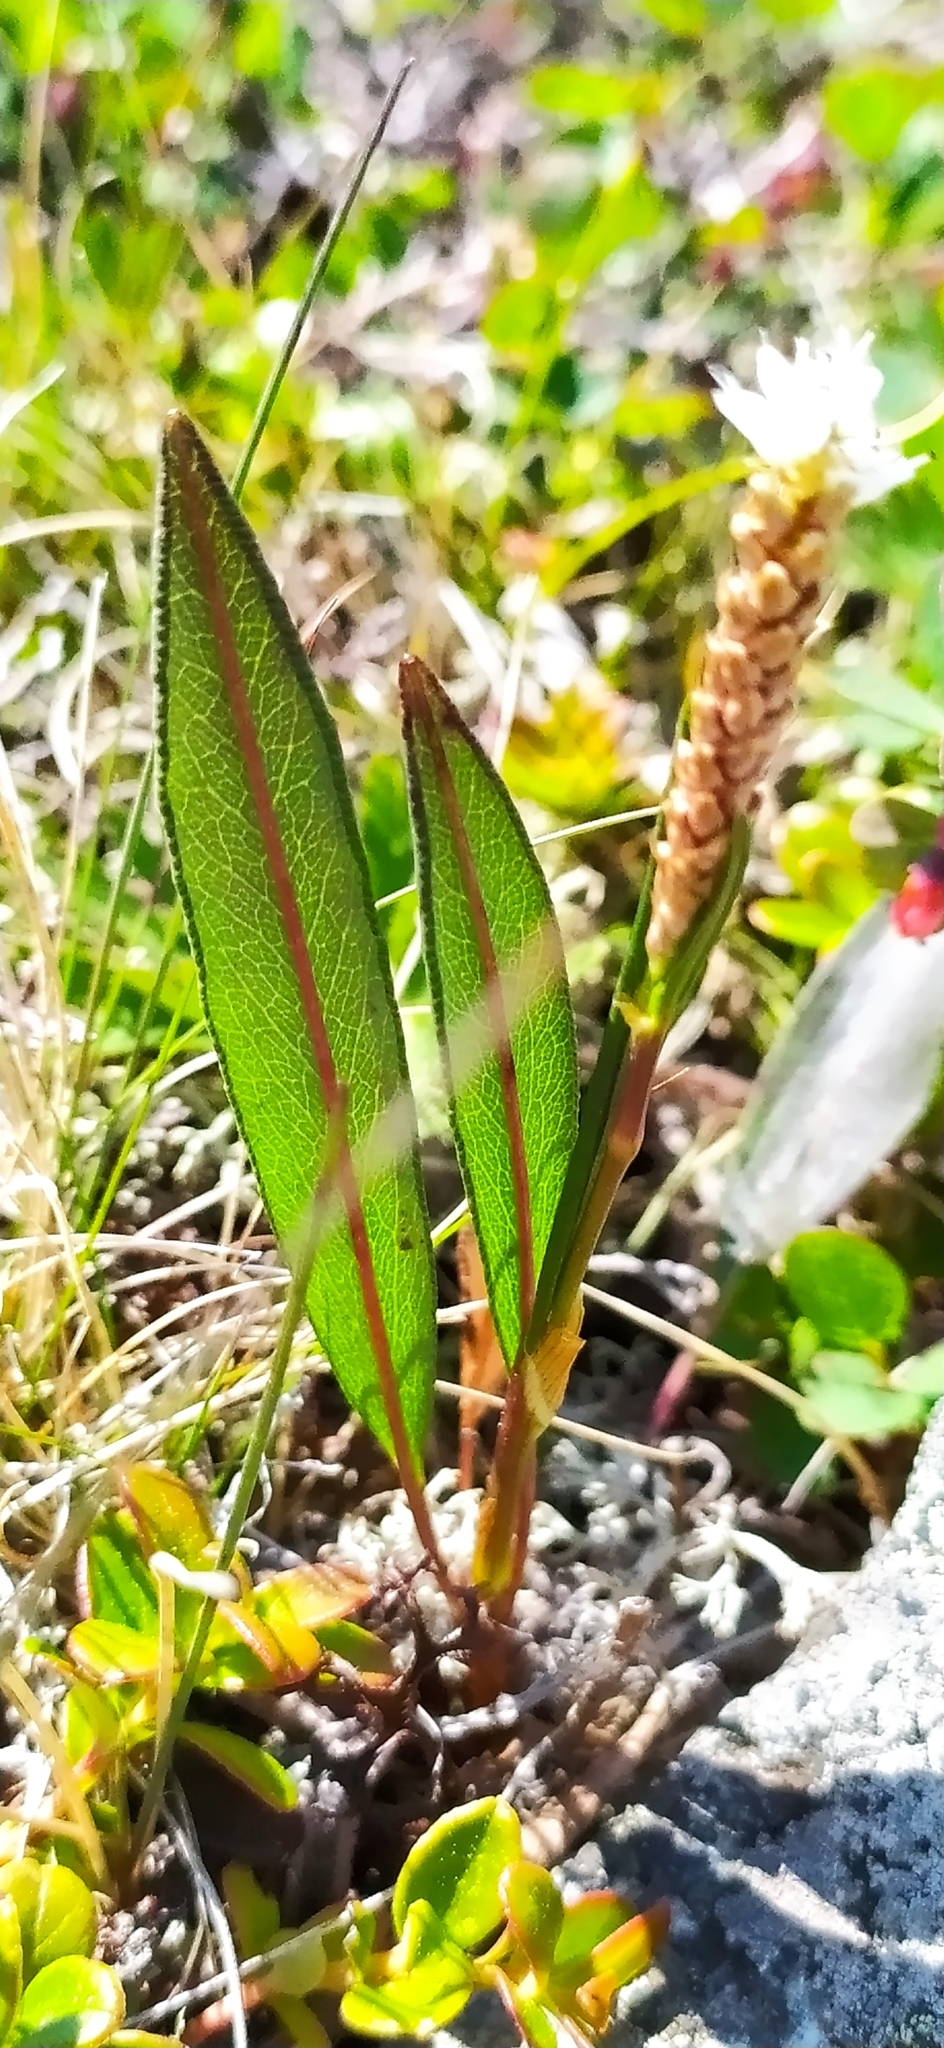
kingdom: Plantae
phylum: Tracheophyta
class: Magnoliopsida
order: Caryophyllales
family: Polygonaceae
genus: Bistorta
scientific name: Bistorta vivipara
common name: Alpine bistort
